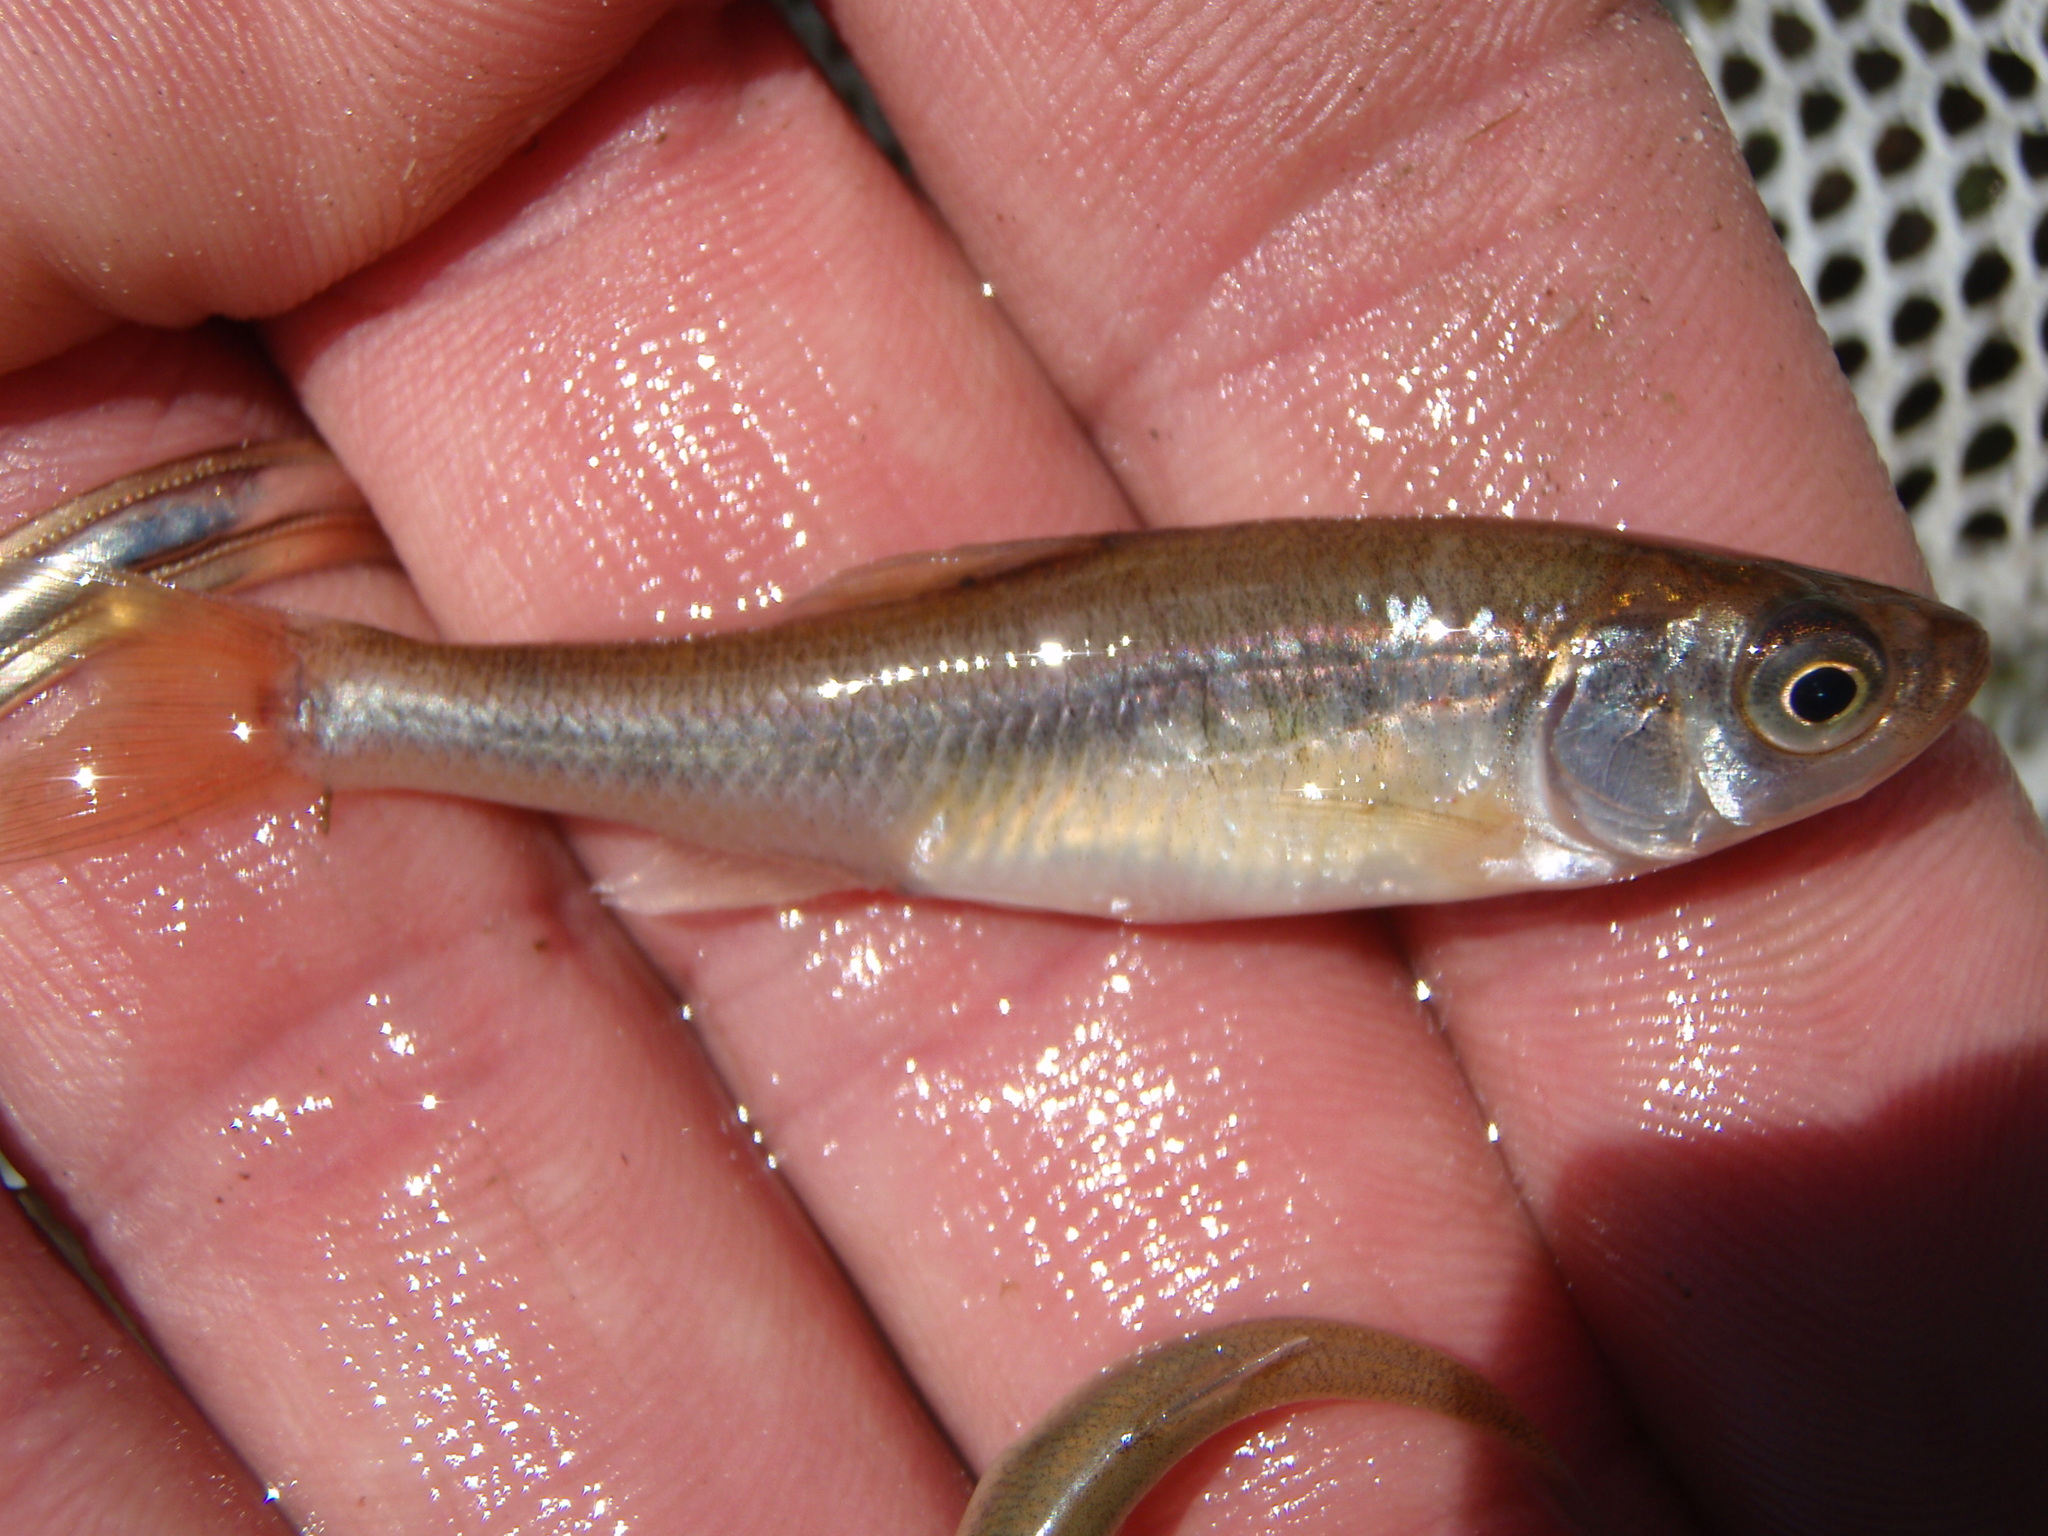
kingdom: Animalia
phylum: Chordata
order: Cypriniformes
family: Cyprinidae
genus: Luxilus
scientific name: Luxilus cornutus
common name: Common shiner
